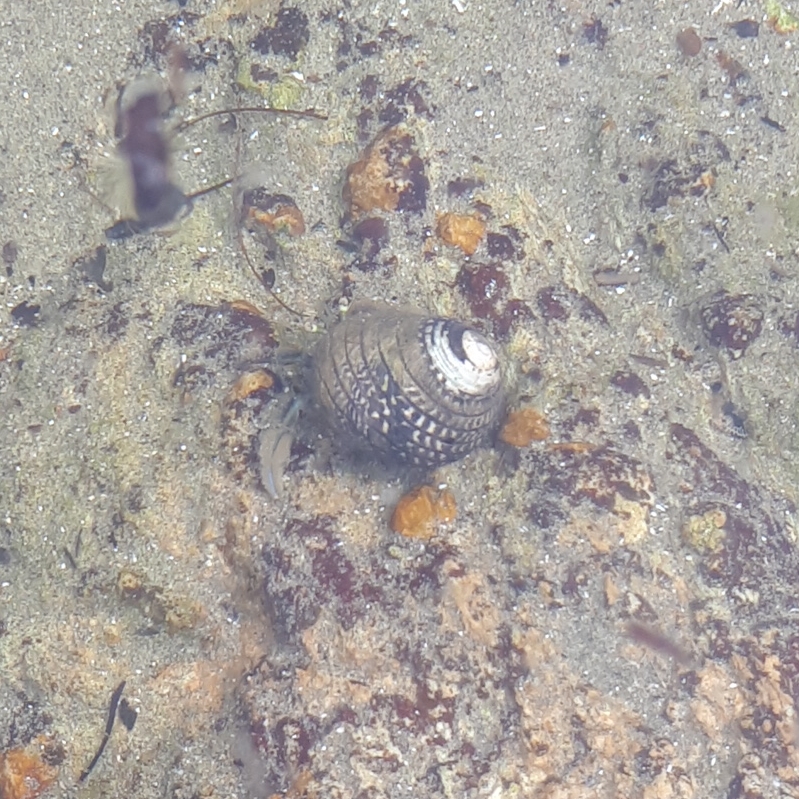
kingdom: Animalia
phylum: Mollusca
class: Gastropoda
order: Trochida
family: Trochidae
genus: Diloma
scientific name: Diloma aethiops
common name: Scorched monodont
